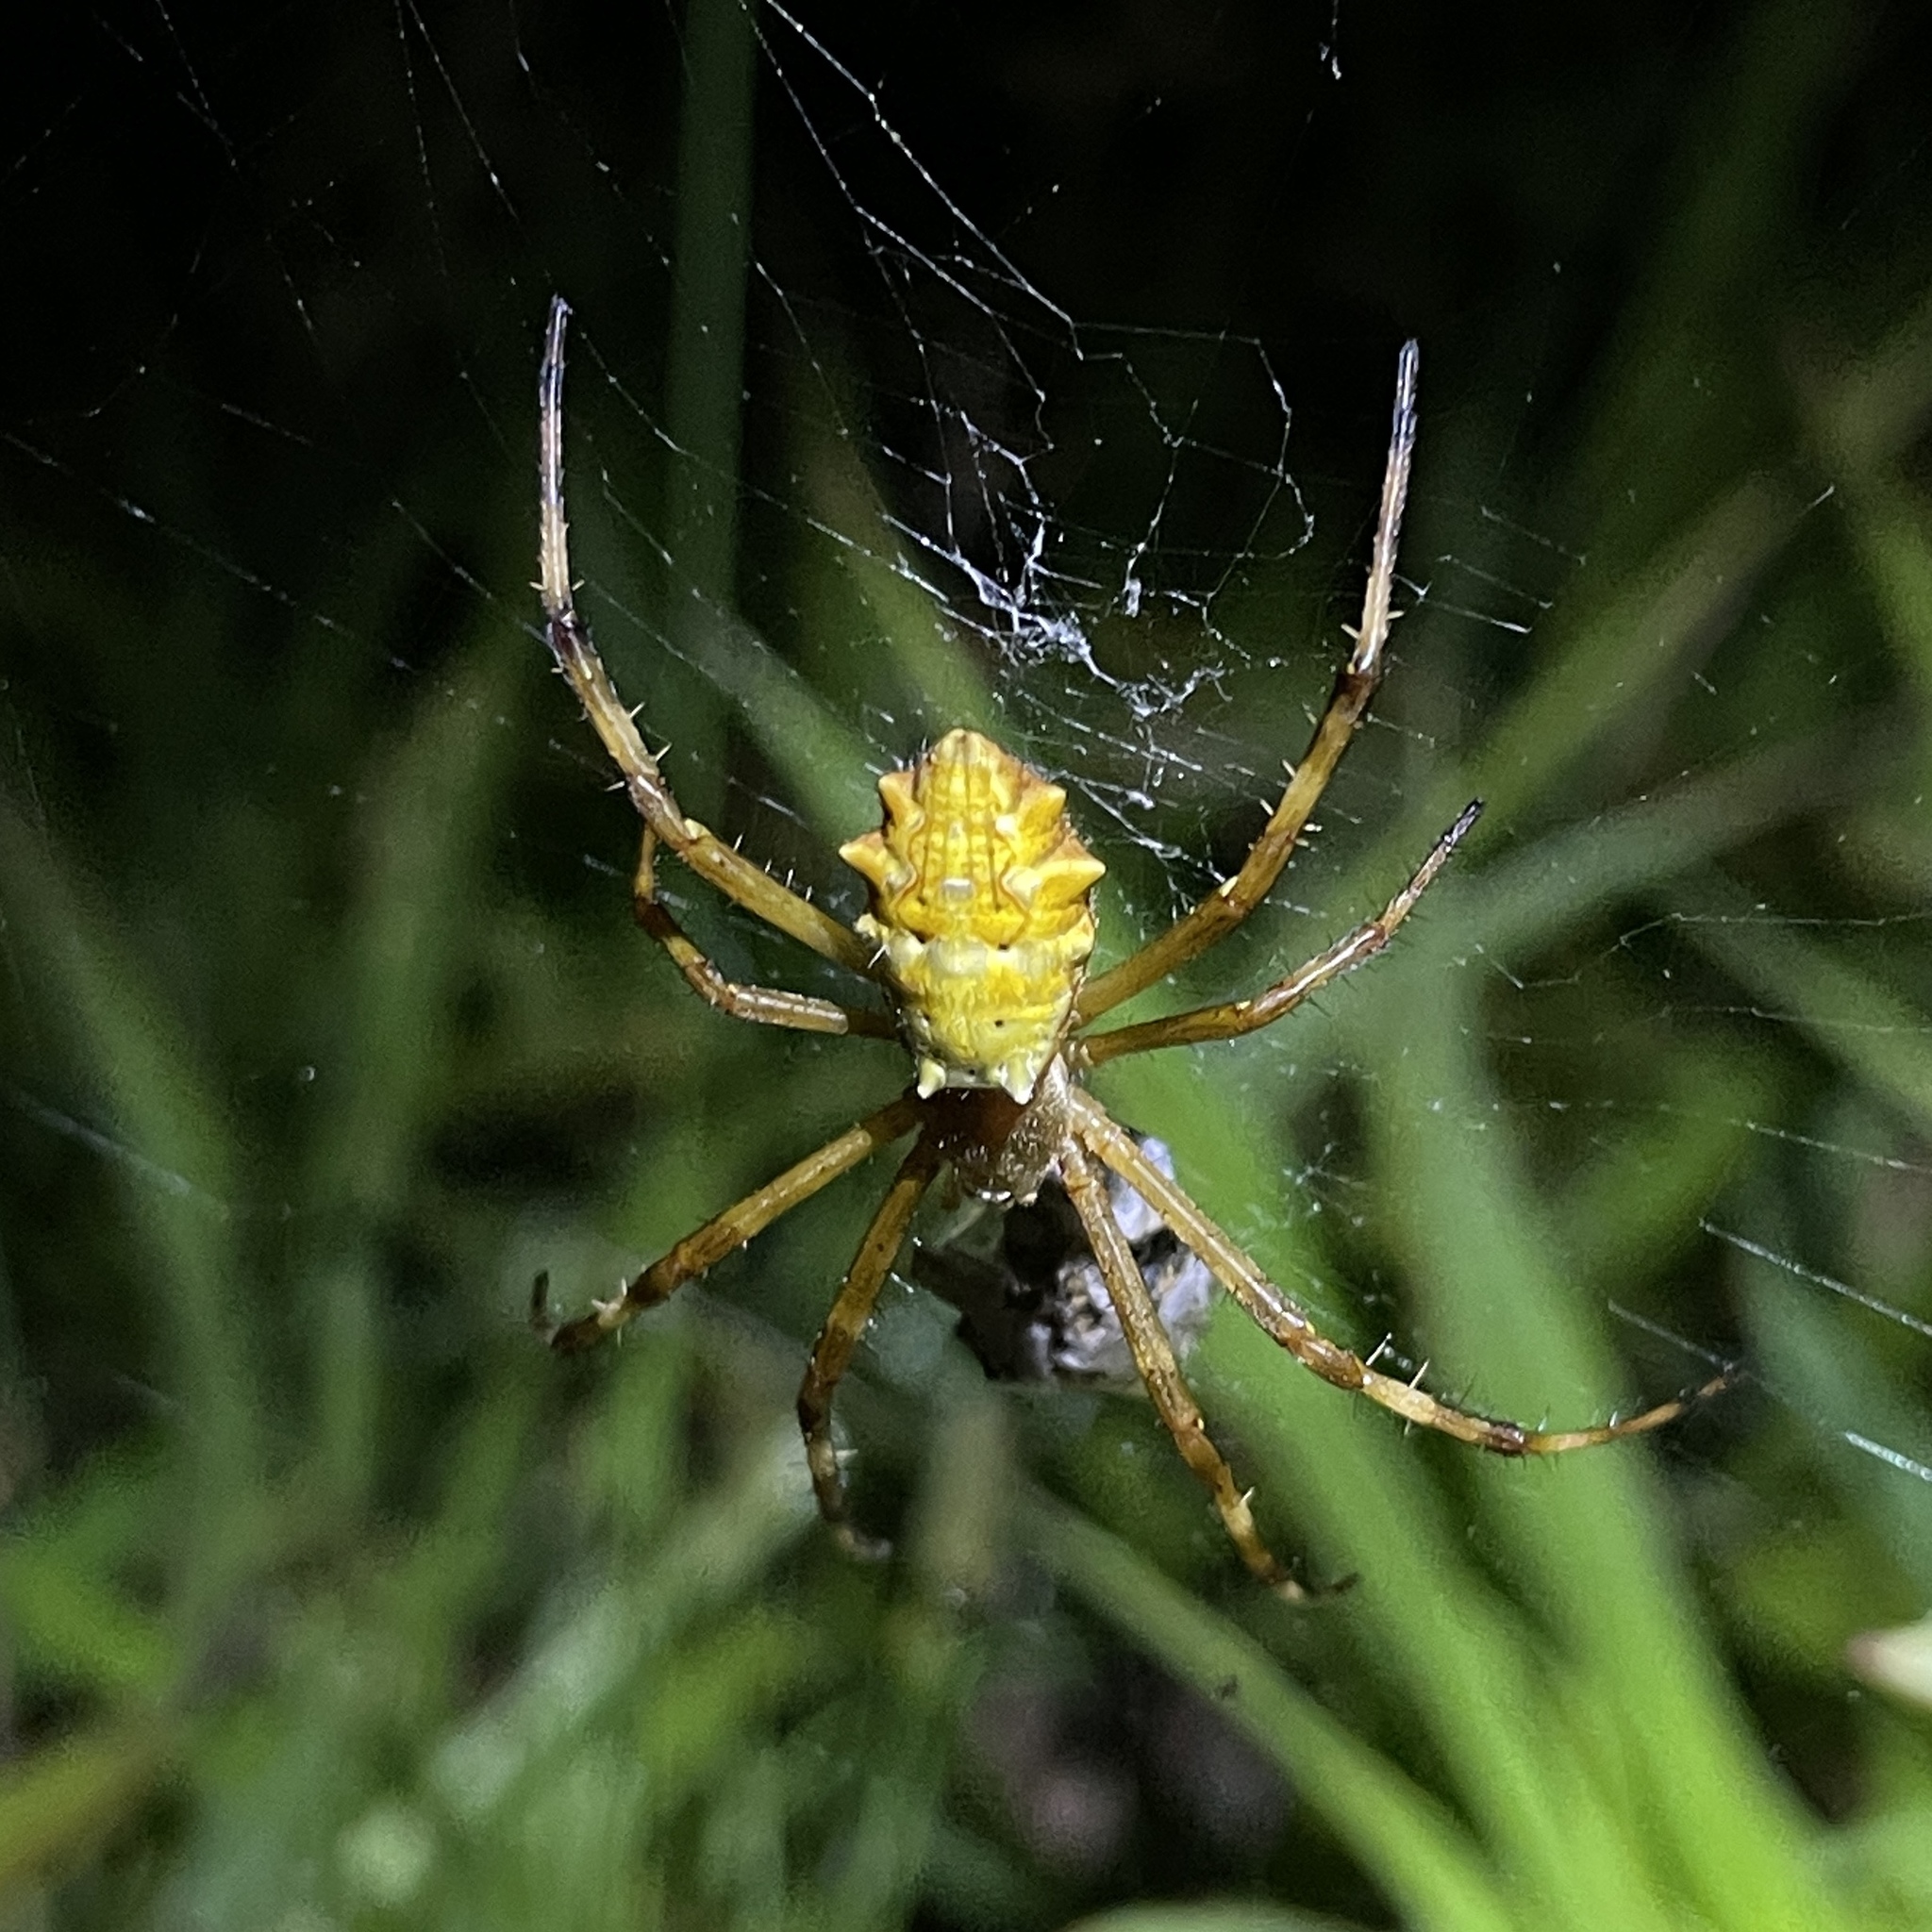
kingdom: Animalia
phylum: Arthropoda
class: Arachnida
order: Araneae
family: Araneidae
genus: Argiope
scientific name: Argiope argentata
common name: Orb weavers
